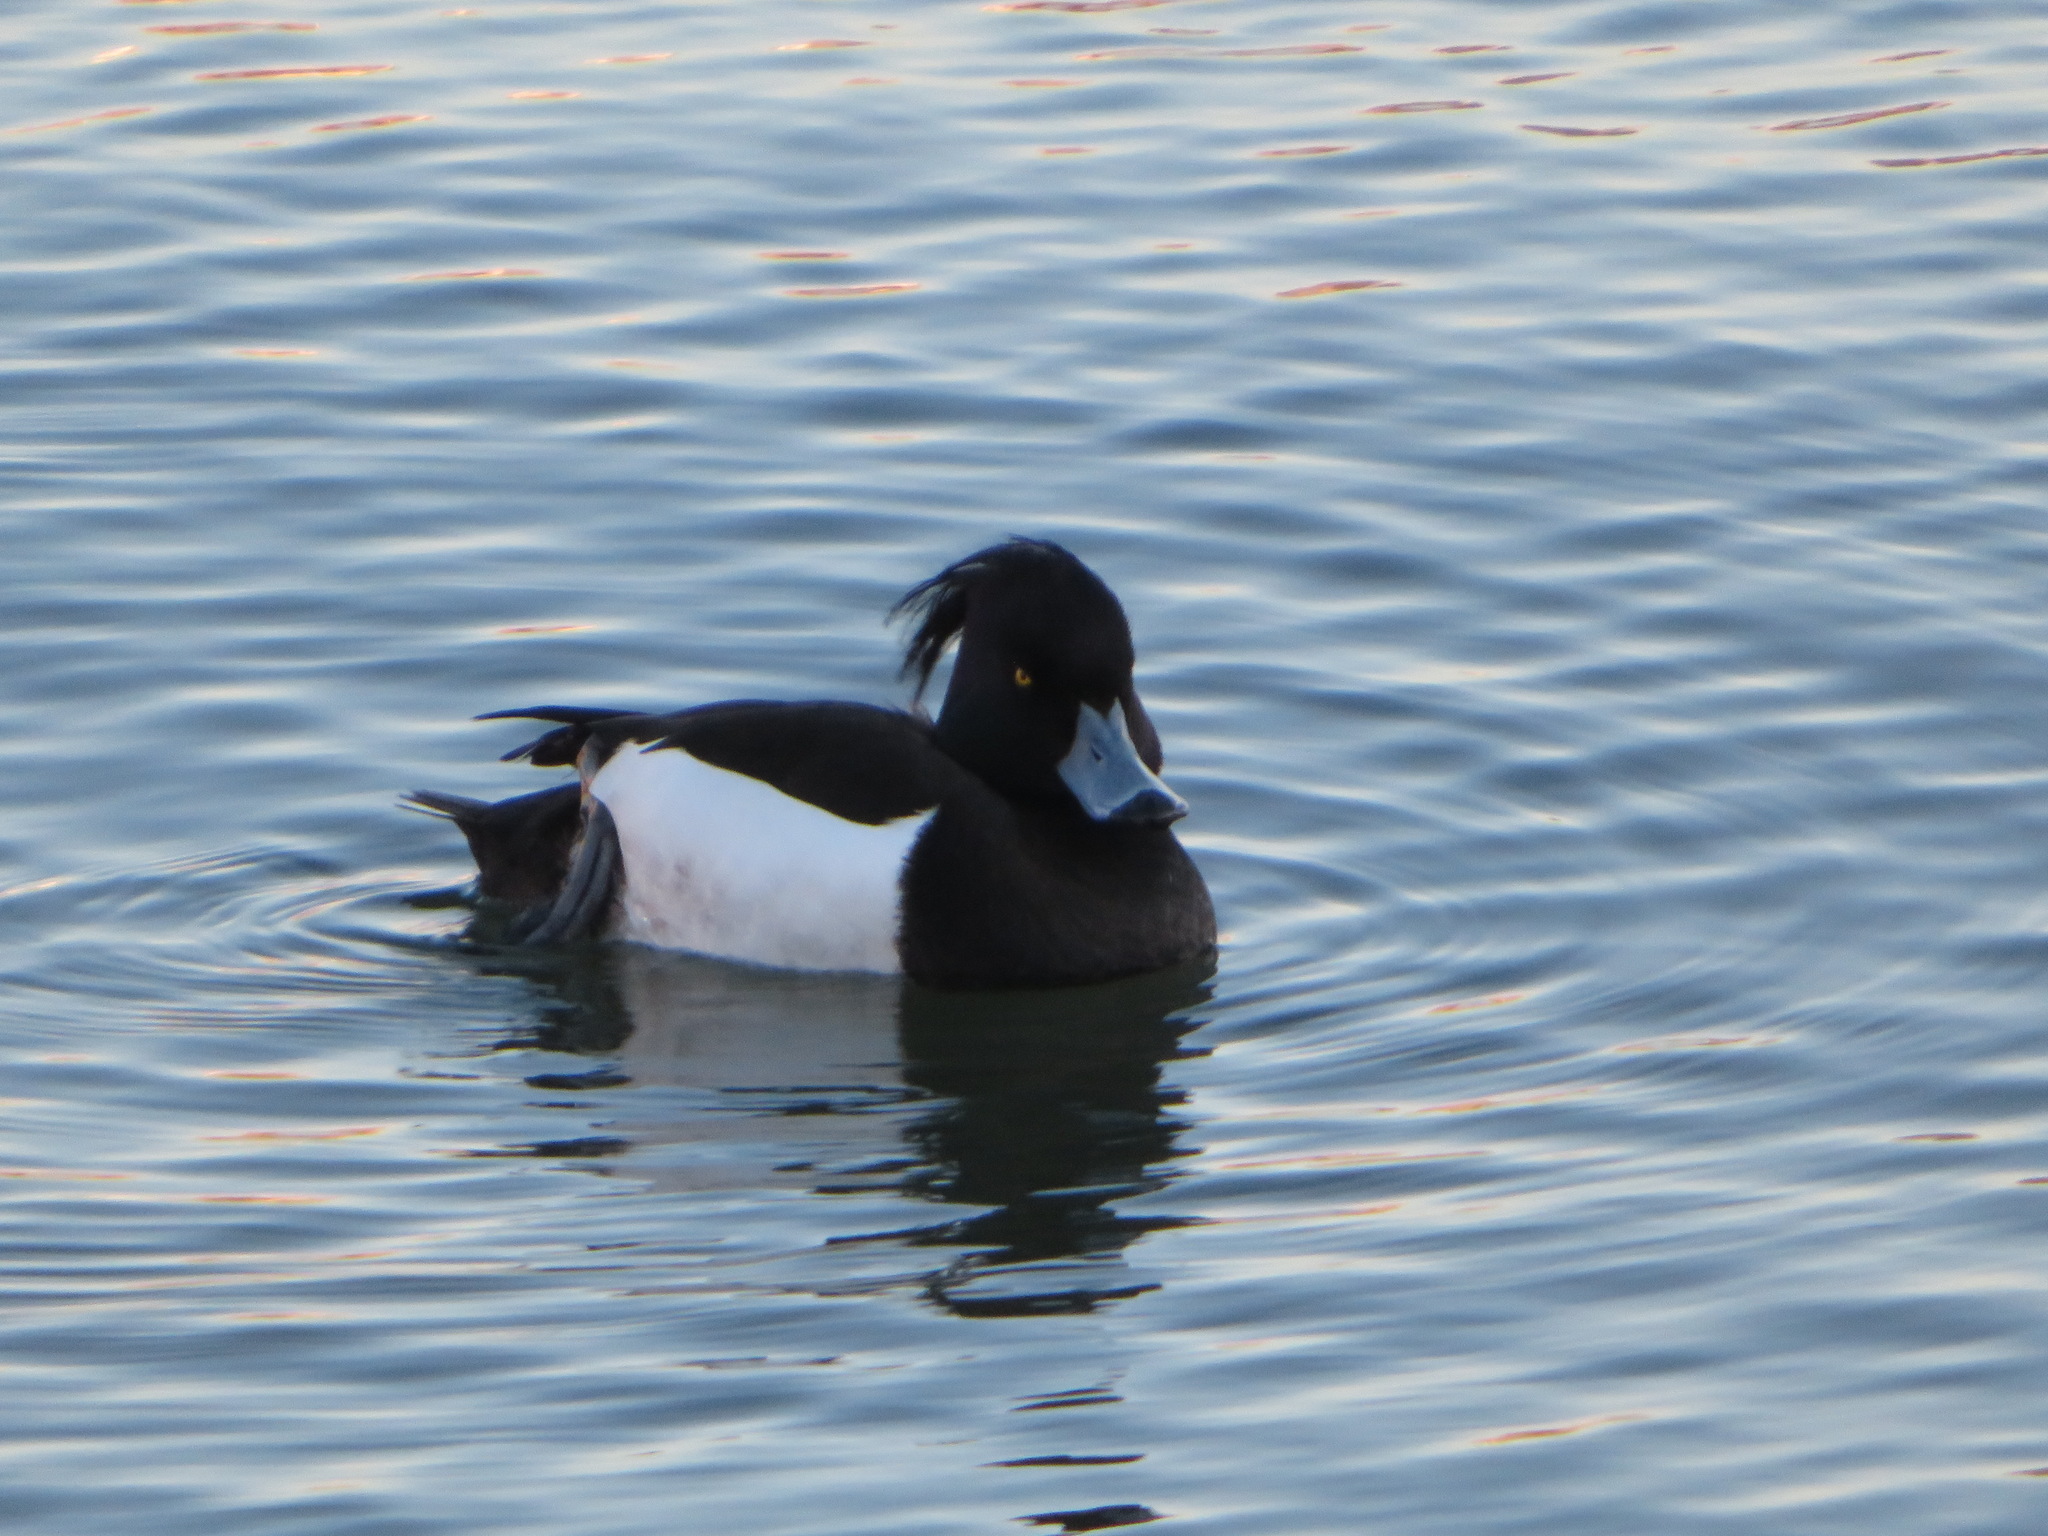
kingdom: Animalia
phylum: Chordata
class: Aves
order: Anseriformes
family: Anatidae
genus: Aythya
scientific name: Aythya fuligula
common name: Tufted duck
